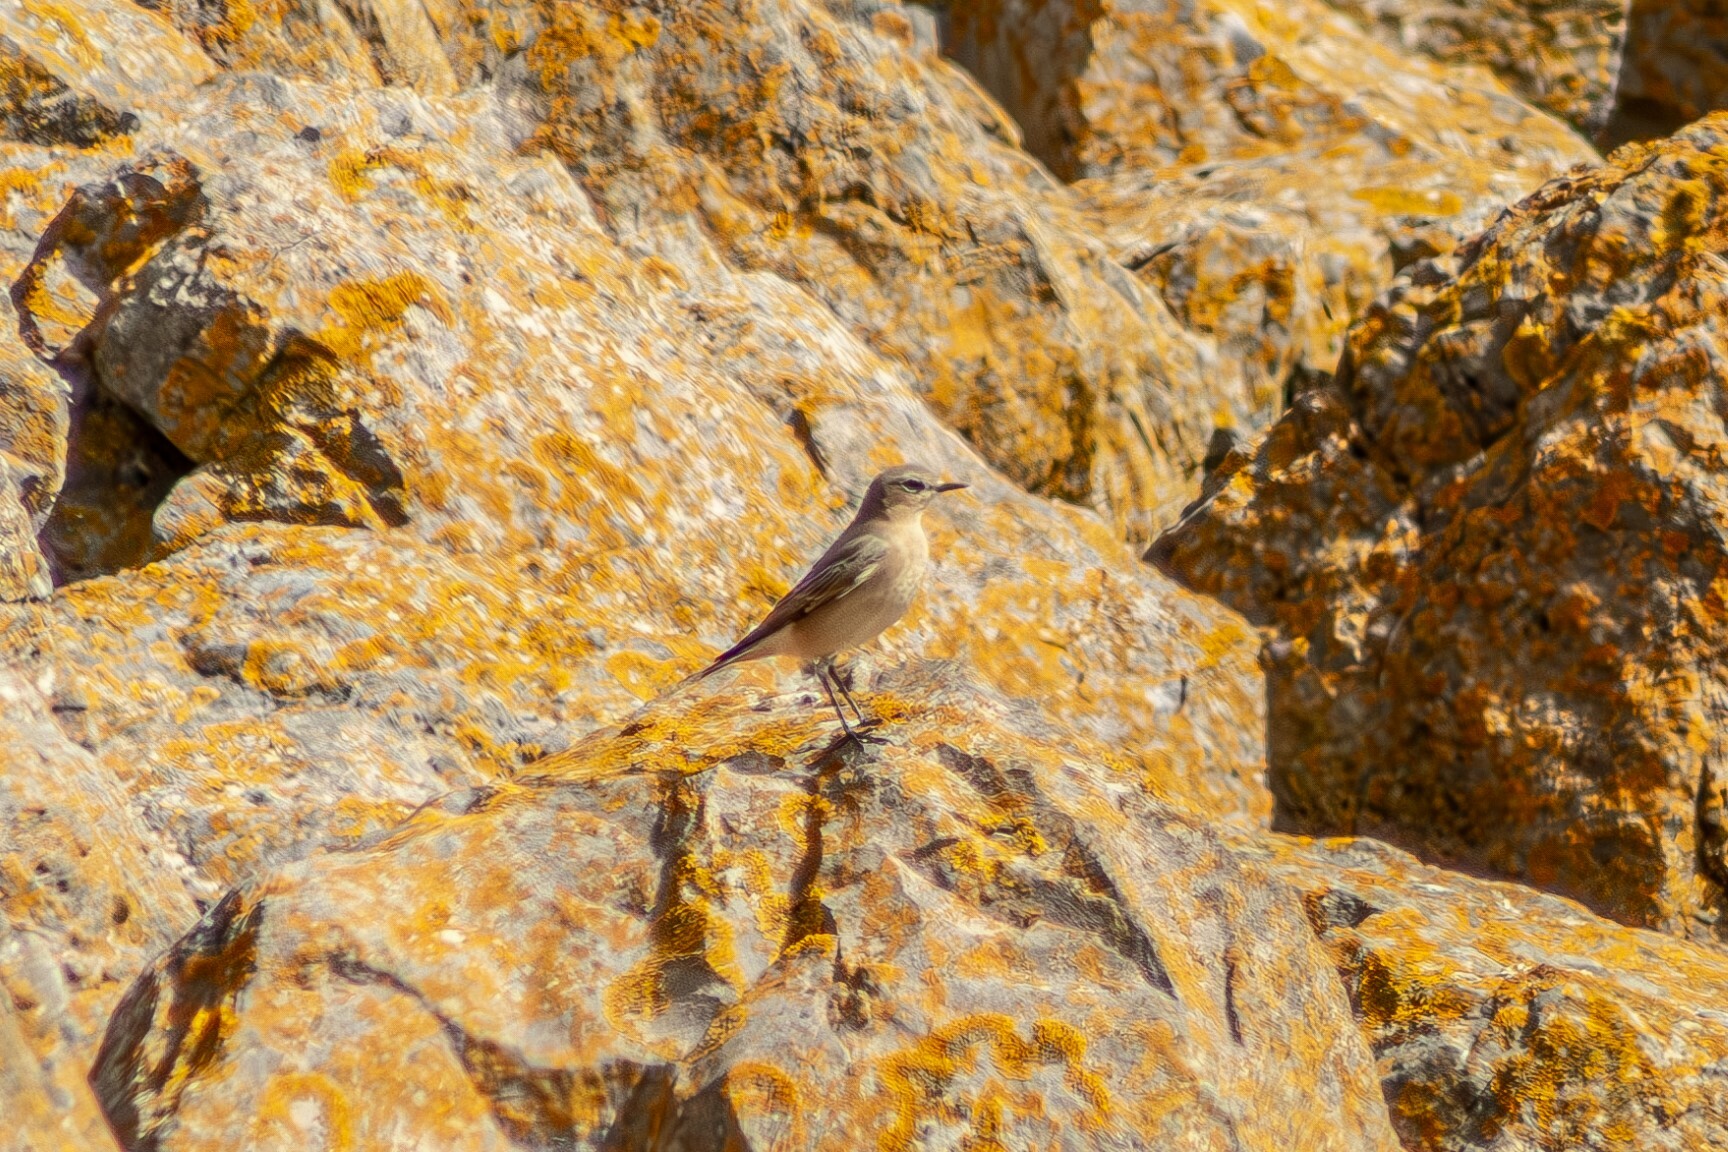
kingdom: Animalia
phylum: Chordata
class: Aves
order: Passeriformes
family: Muscicapidae
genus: Oenanthe
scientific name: Oenanthe oenanthe
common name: Northern wheatear
